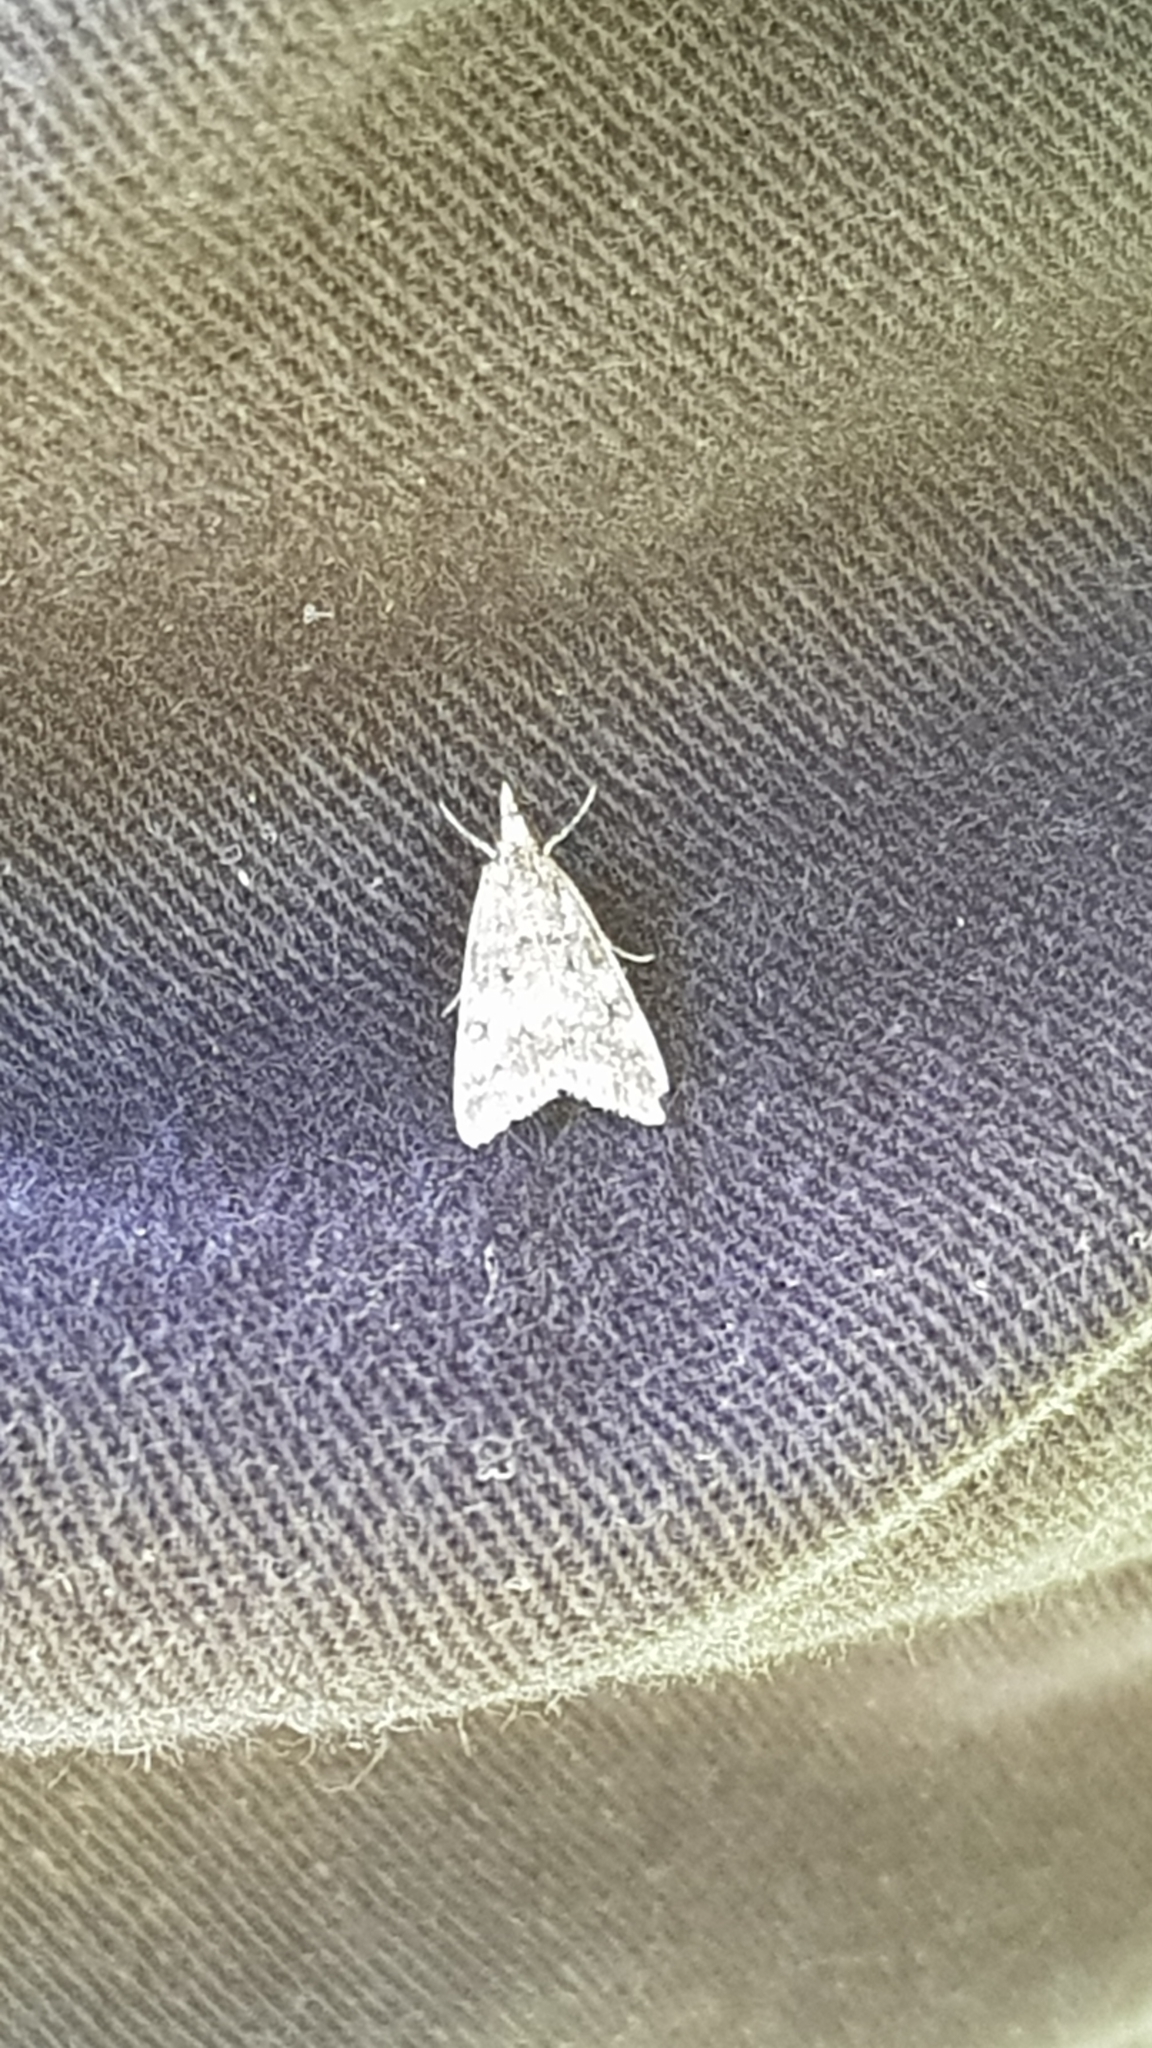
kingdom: Animalia
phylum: Arthropoda
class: Insecta
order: Lepidoptera
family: Crambidae
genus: Eudonia
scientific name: Eudonia lacustrata
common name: Little grey
